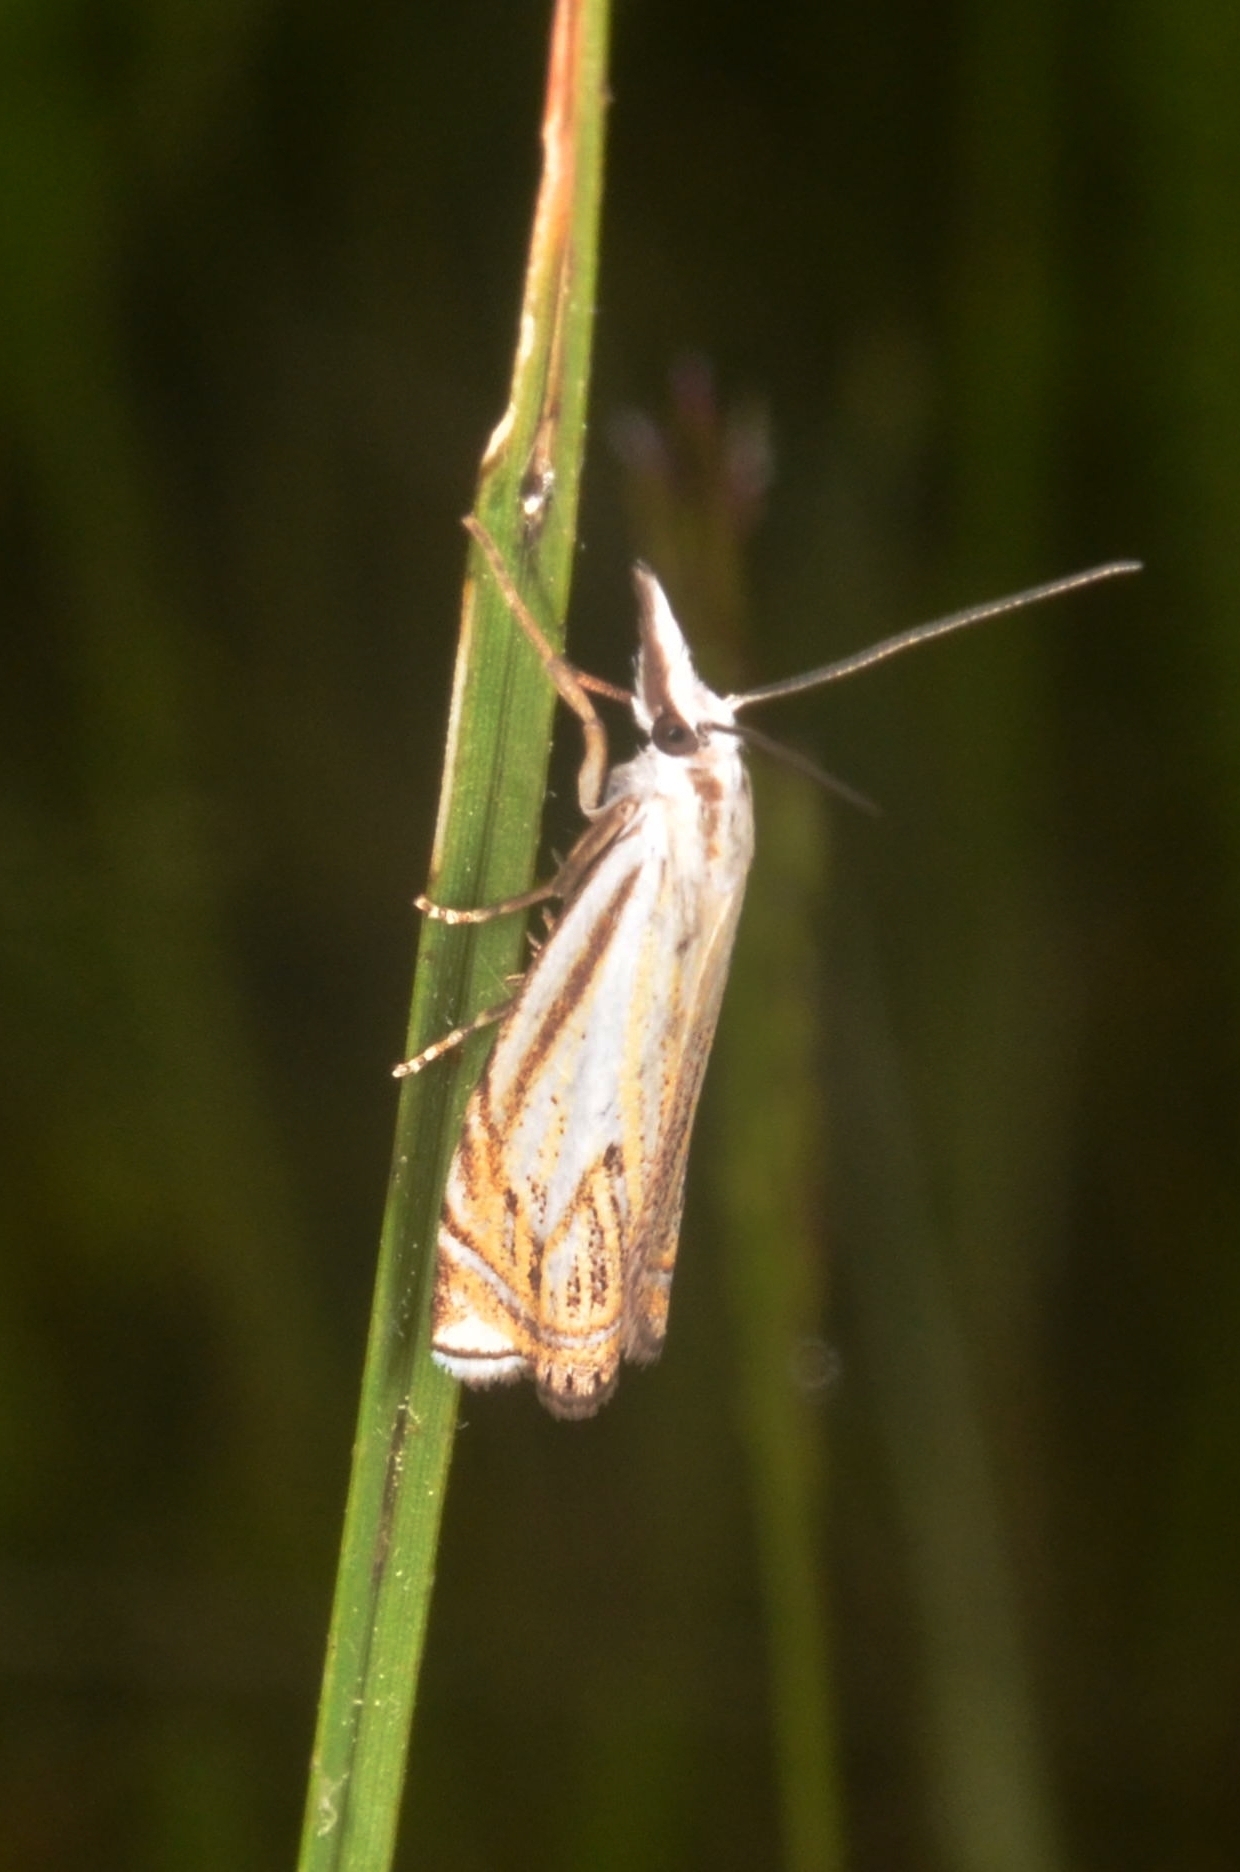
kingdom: Animalia
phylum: Arthropoda
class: Insecta
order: Lepidoptera
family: Crambidae
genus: Crambus
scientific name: Crambus nemorella
